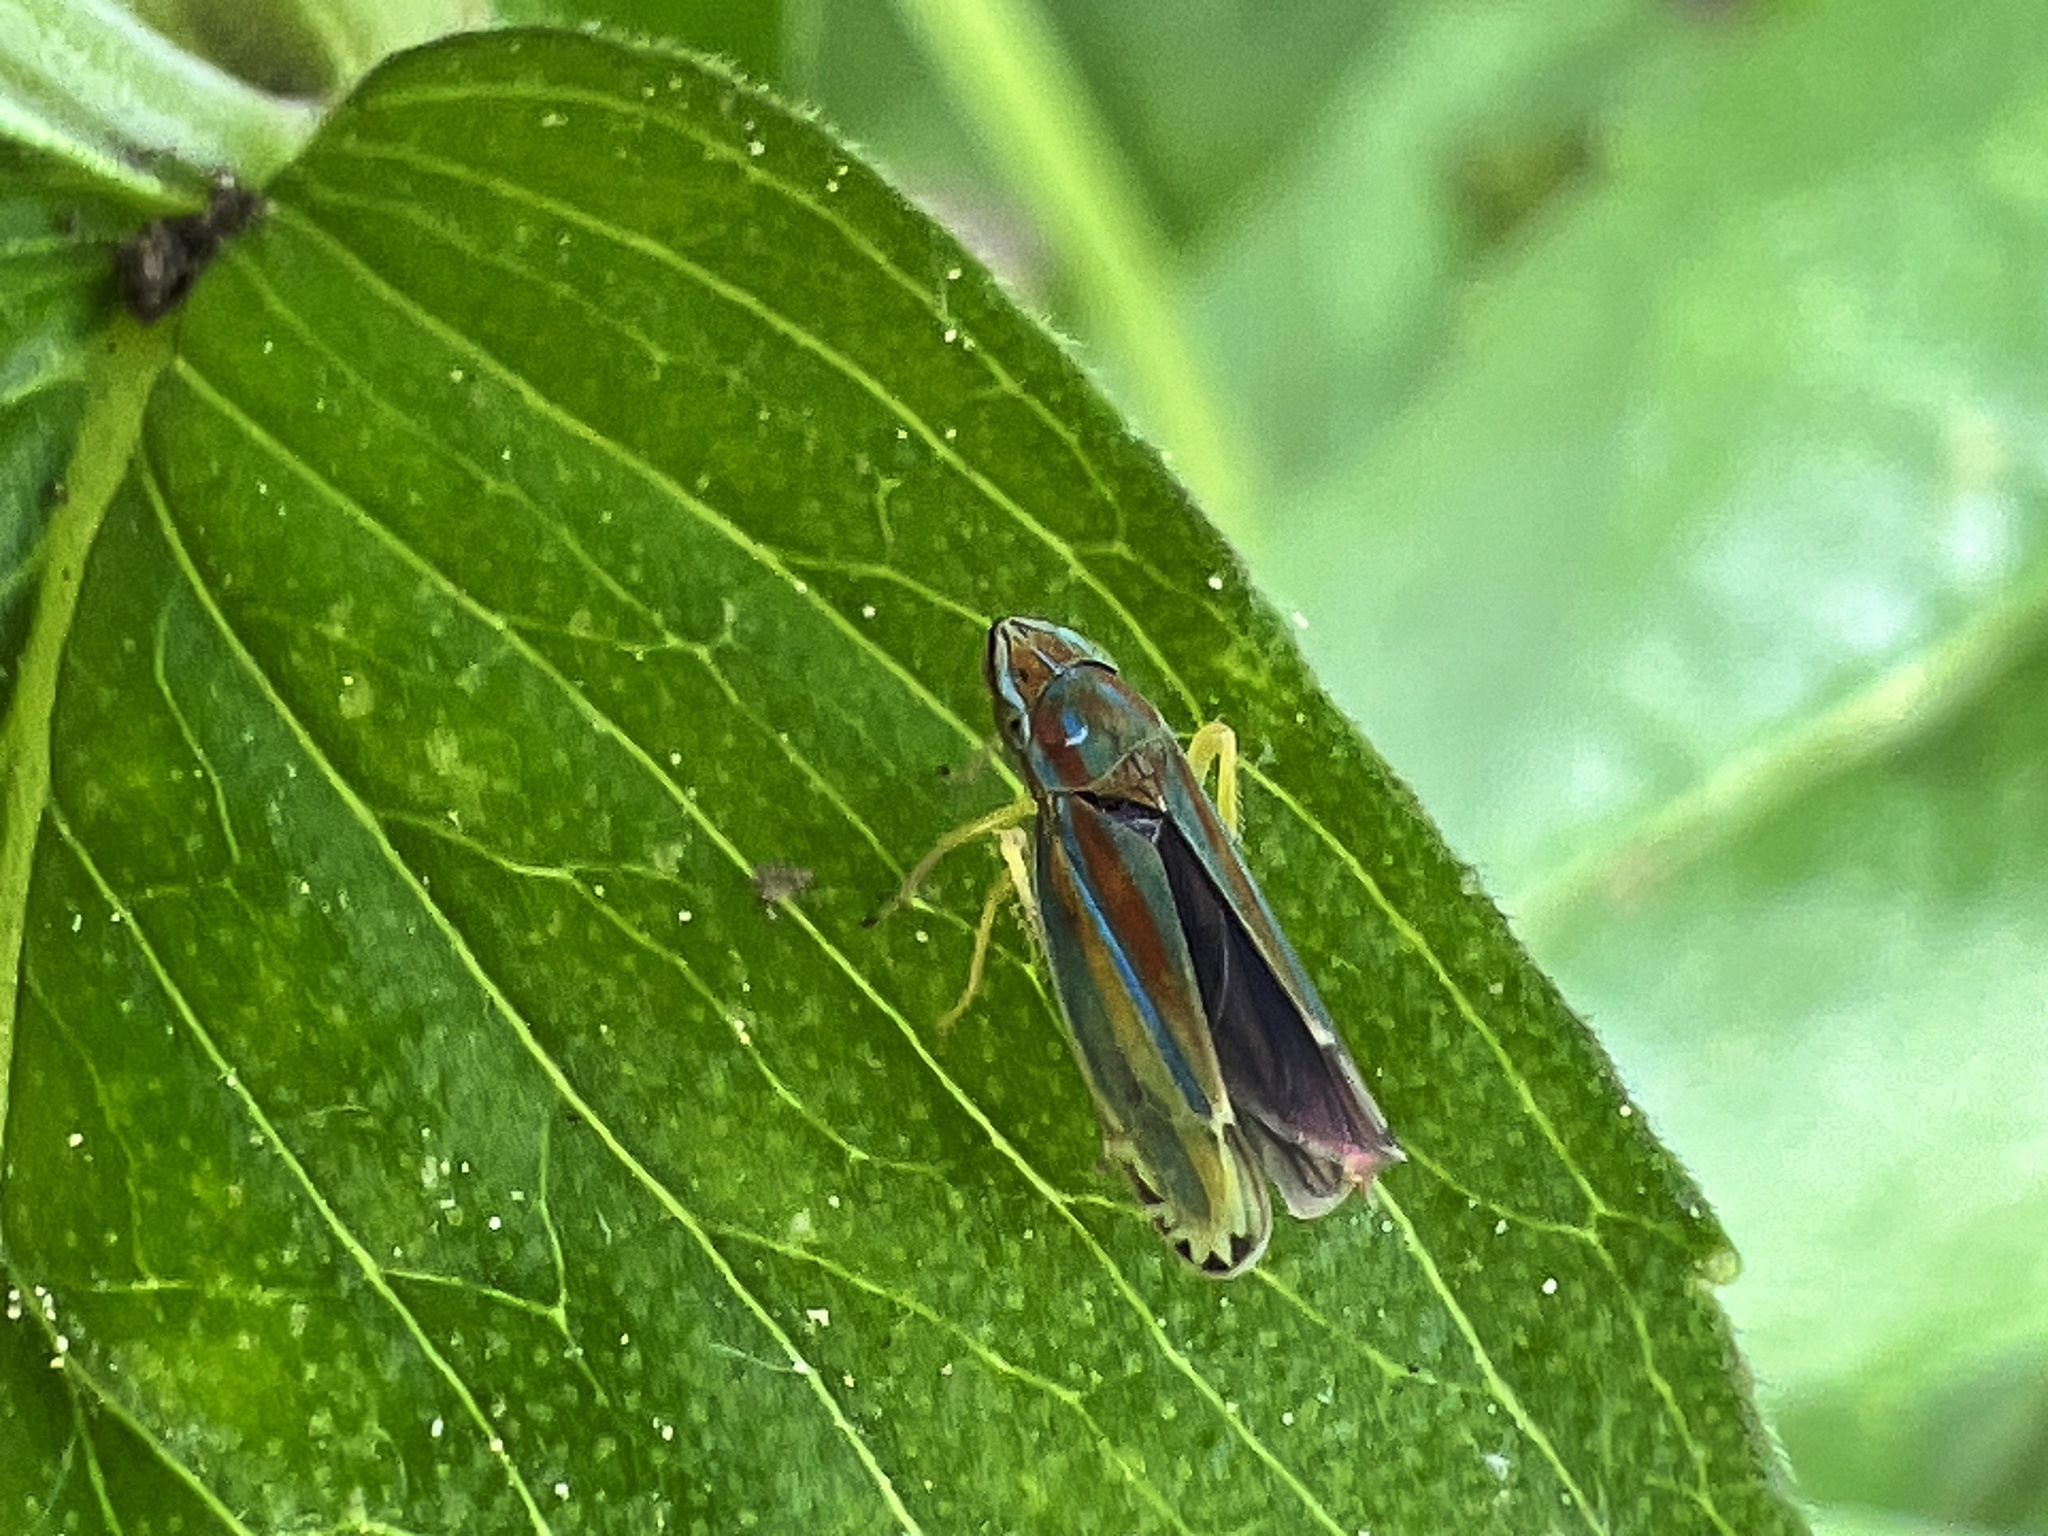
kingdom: Animalia
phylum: Arthropoda
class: Insecta
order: Hemiptera
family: Cicadellidae
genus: Graphocephala
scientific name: Graphocephala versuta
